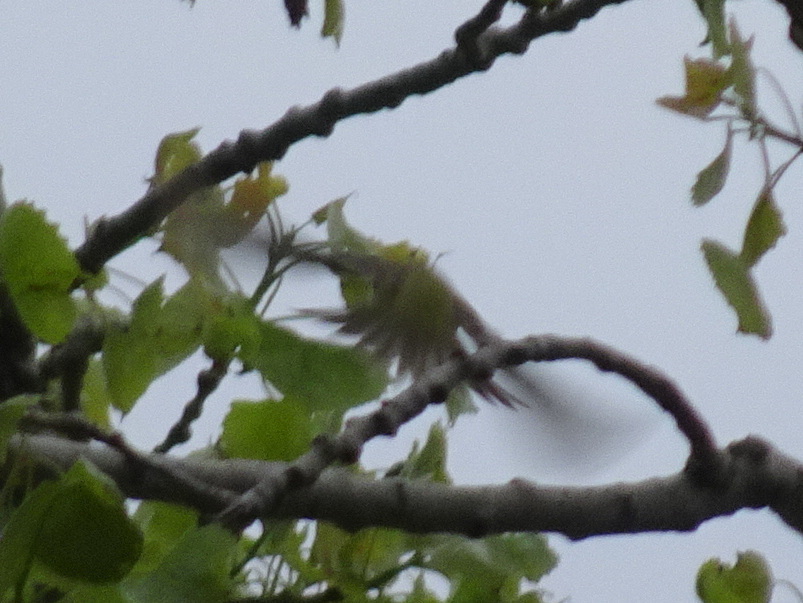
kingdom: Animalia
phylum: Chordata
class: Aves
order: Passeriformes
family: Parulidae
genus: Leiothlypis
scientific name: Leiothlypis celata
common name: Orange-crowned warbler
